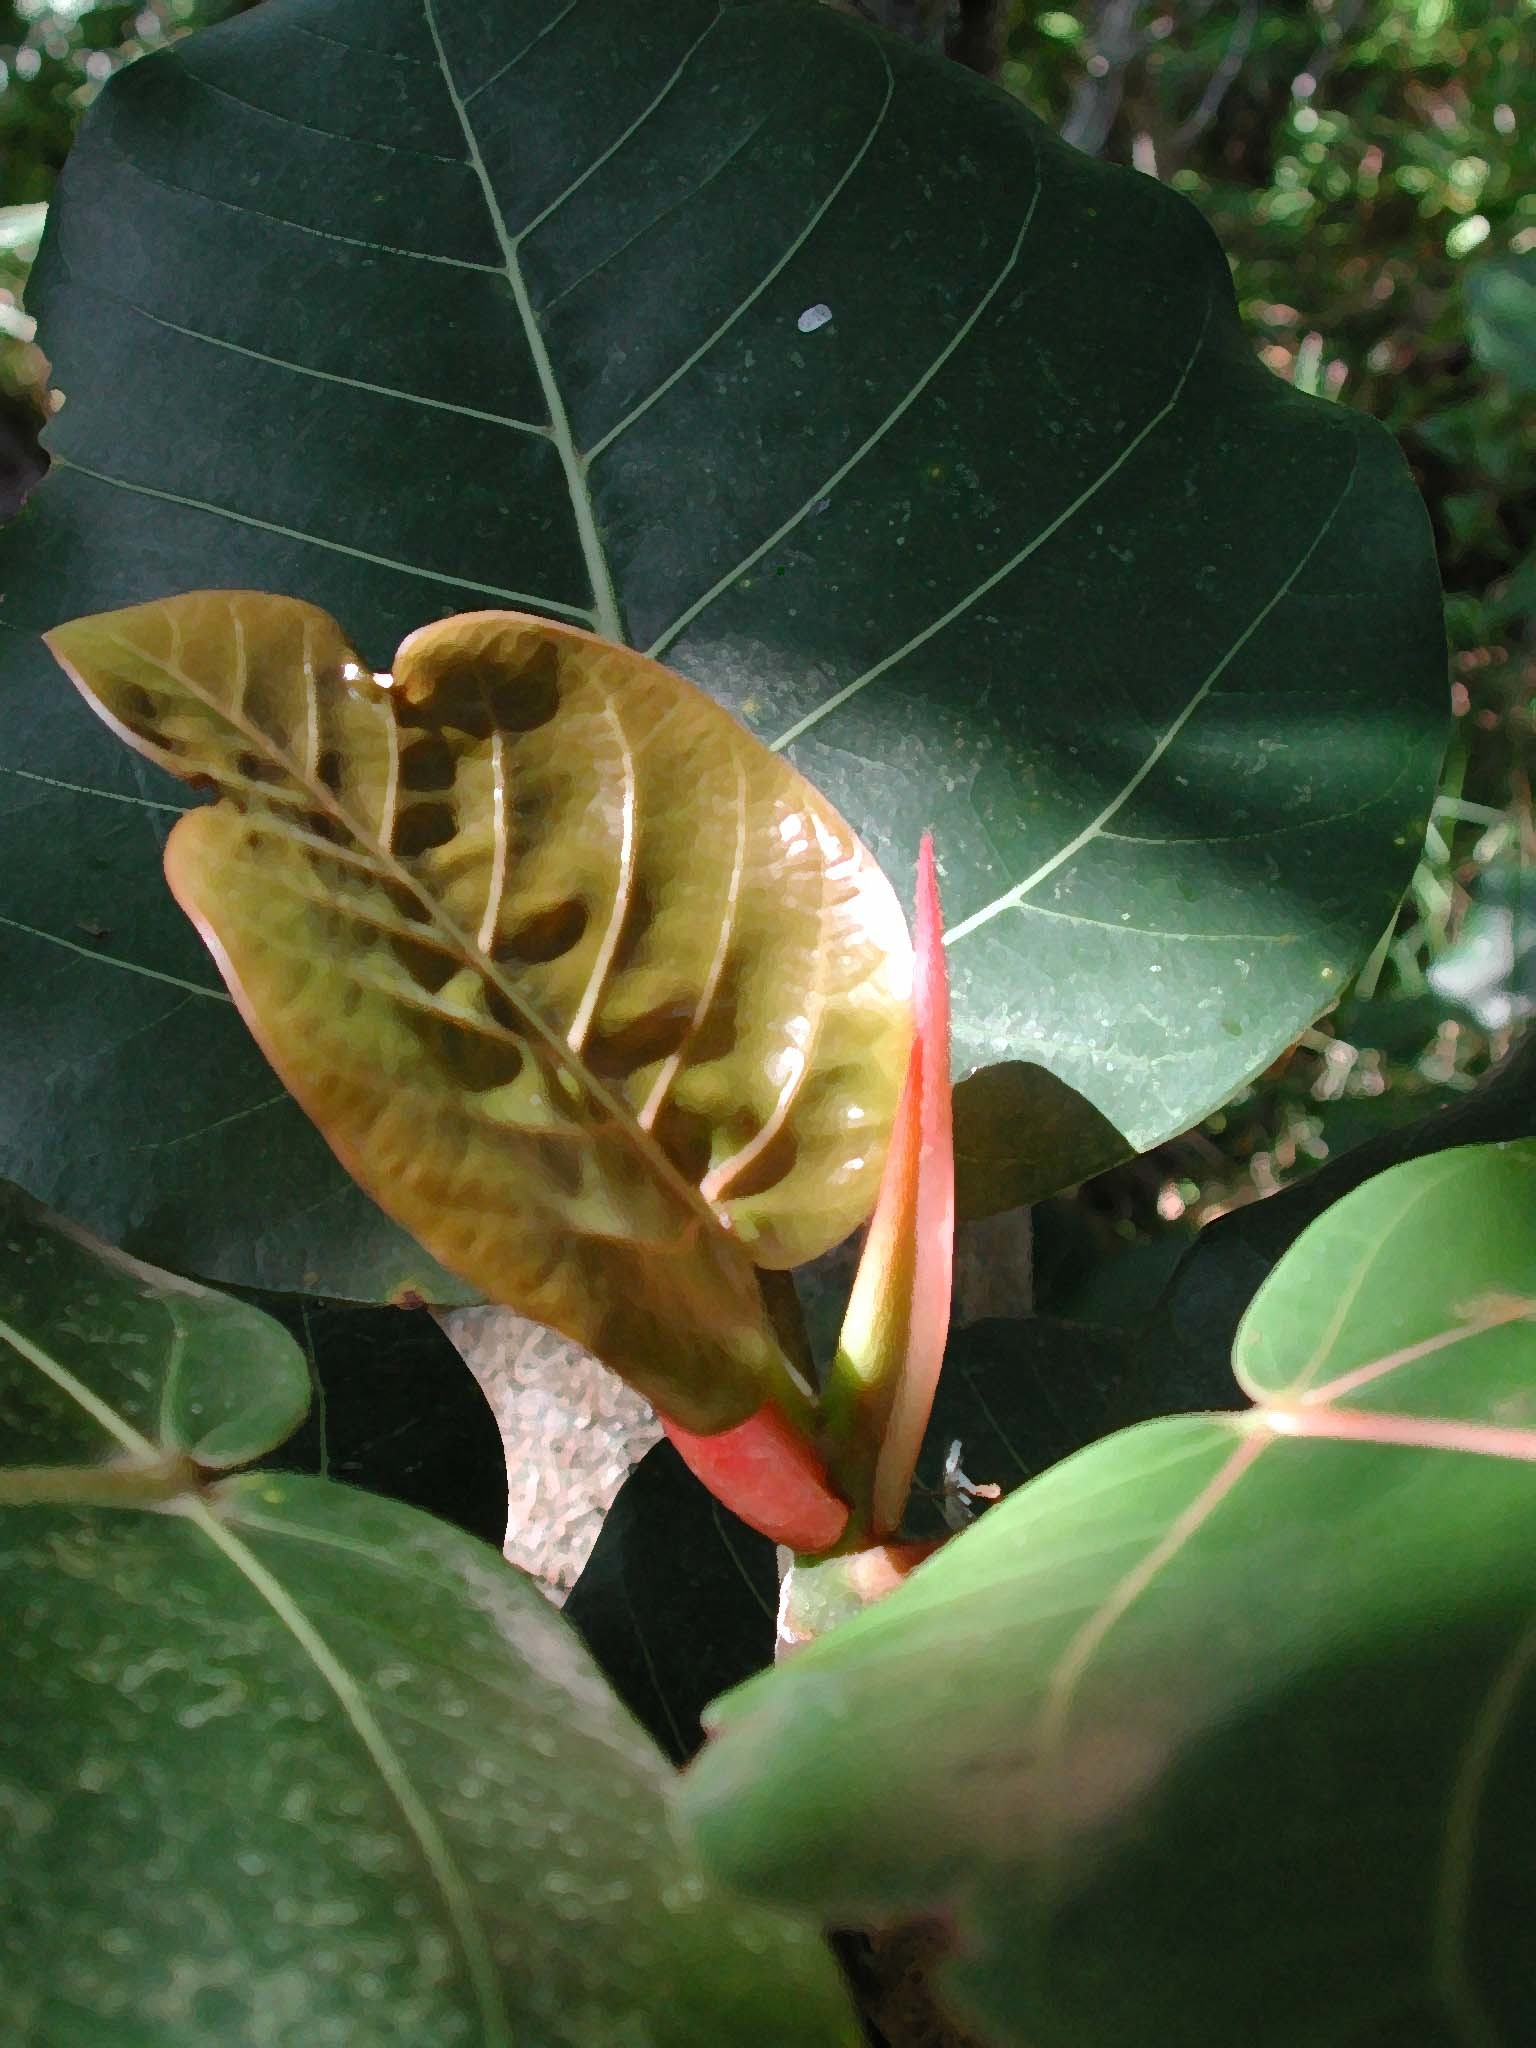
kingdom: Plantae
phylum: Tracheophyta
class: Magnoliopsida
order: Rosales
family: Moraceae
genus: Ficus
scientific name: Ficus trichopoda
